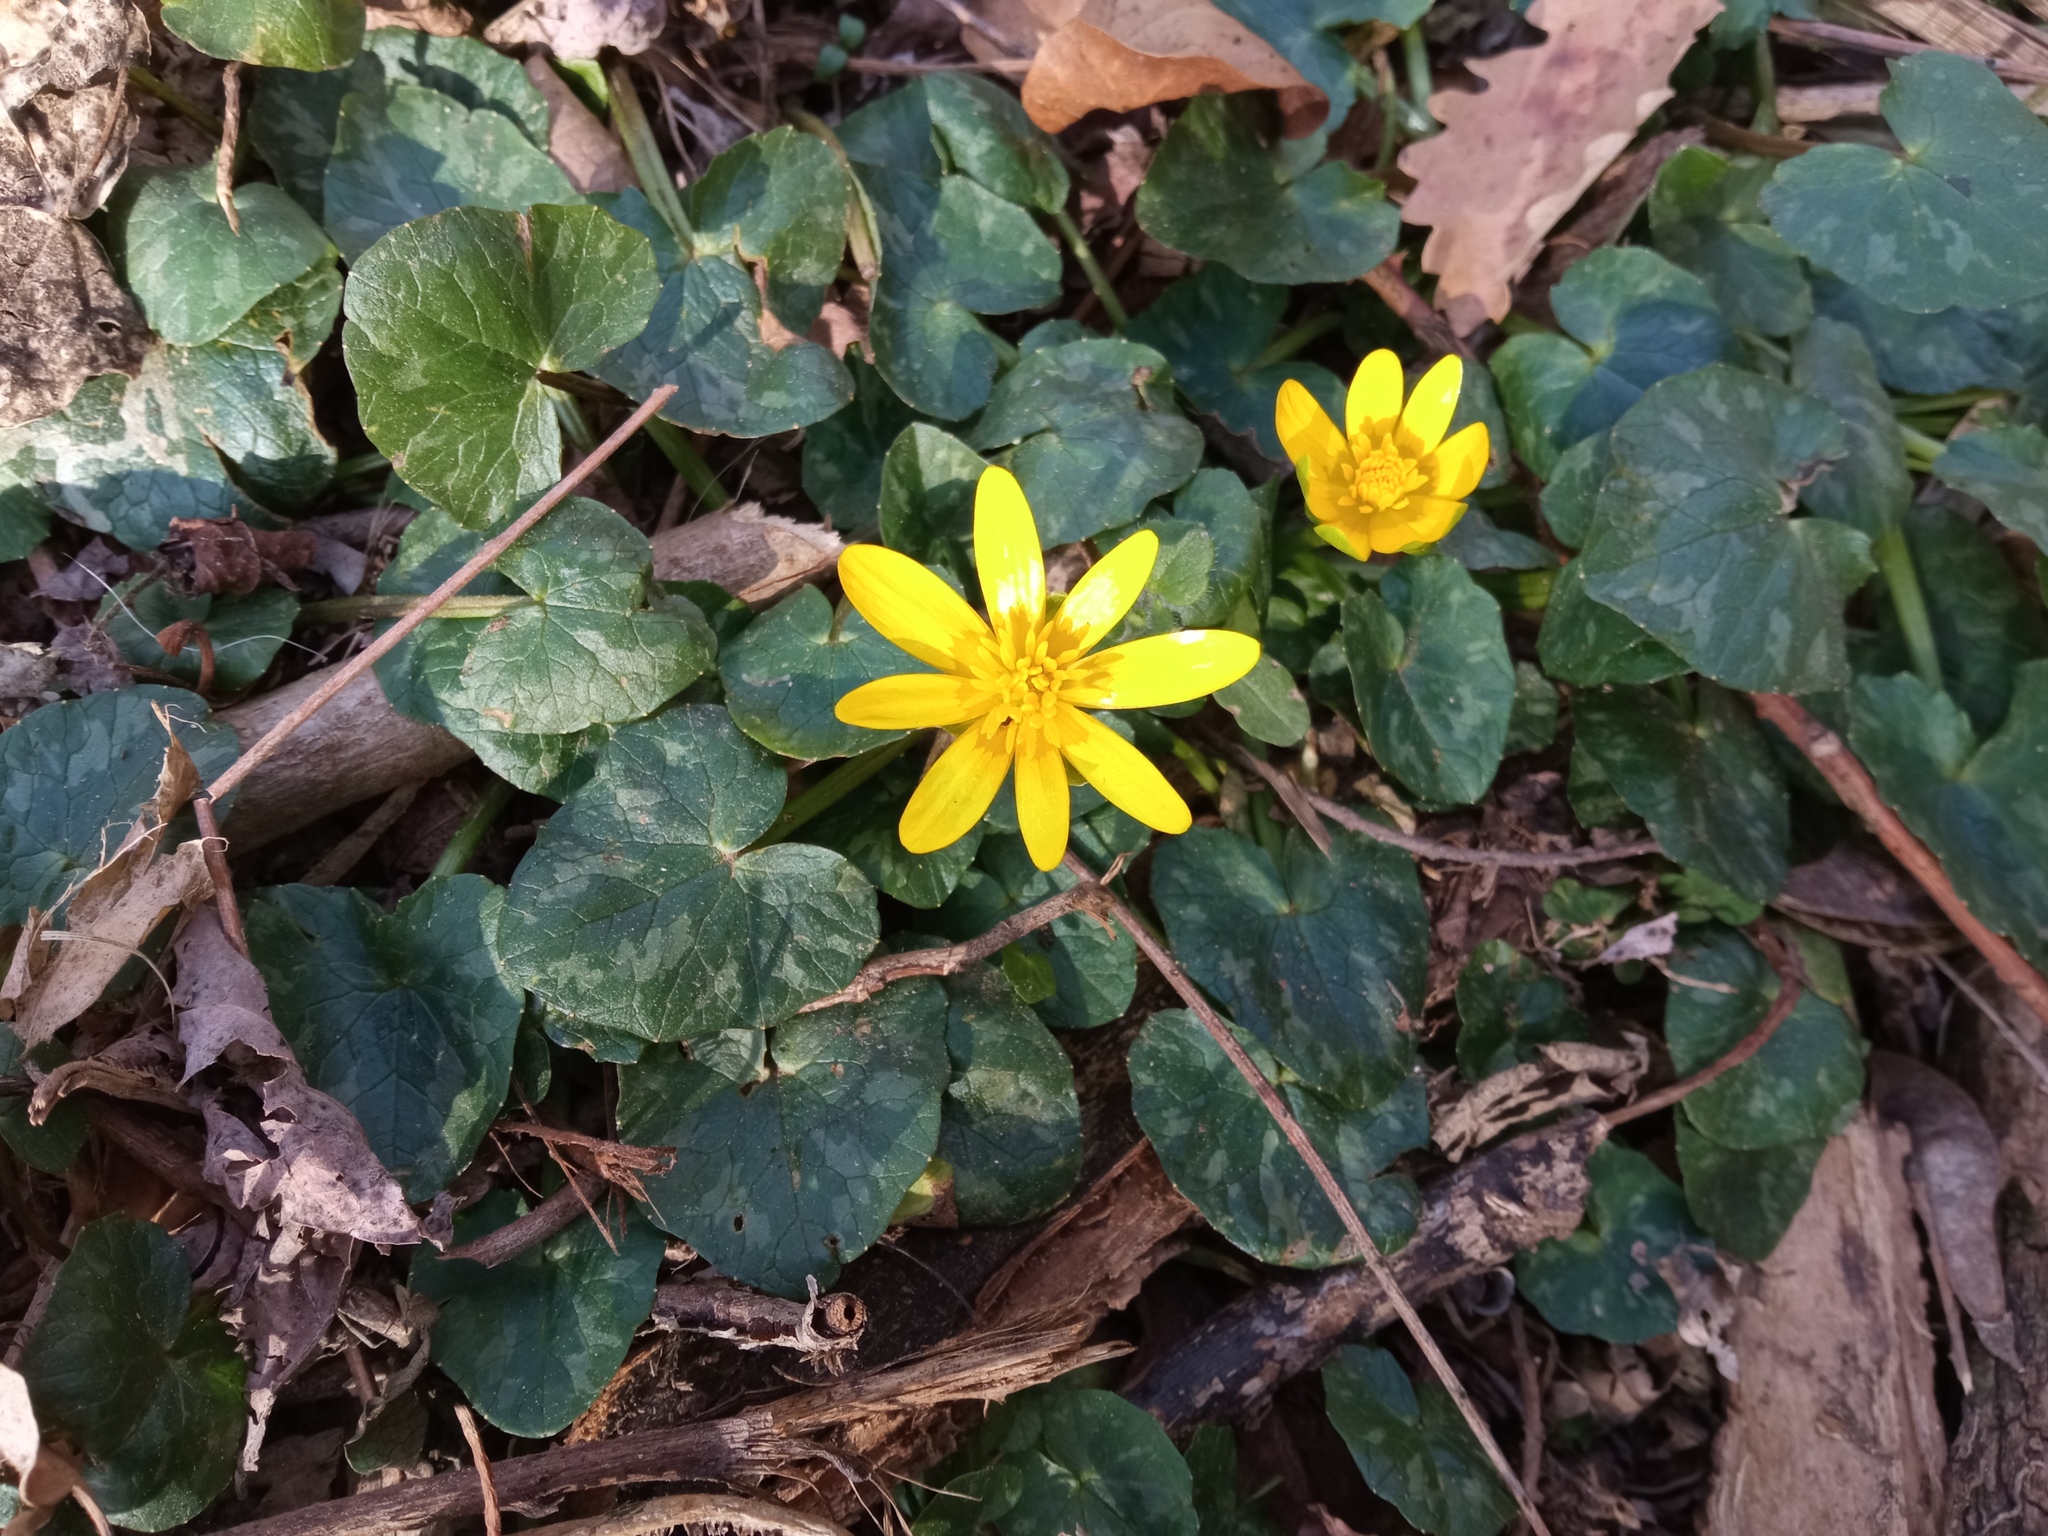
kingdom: Plantae
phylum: Tracheophyta
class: Magnoliopsida
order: Ranunculales
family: Ranunculaceae
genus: Ficaria
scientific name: Ficaria verna
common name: Lesser celandine
